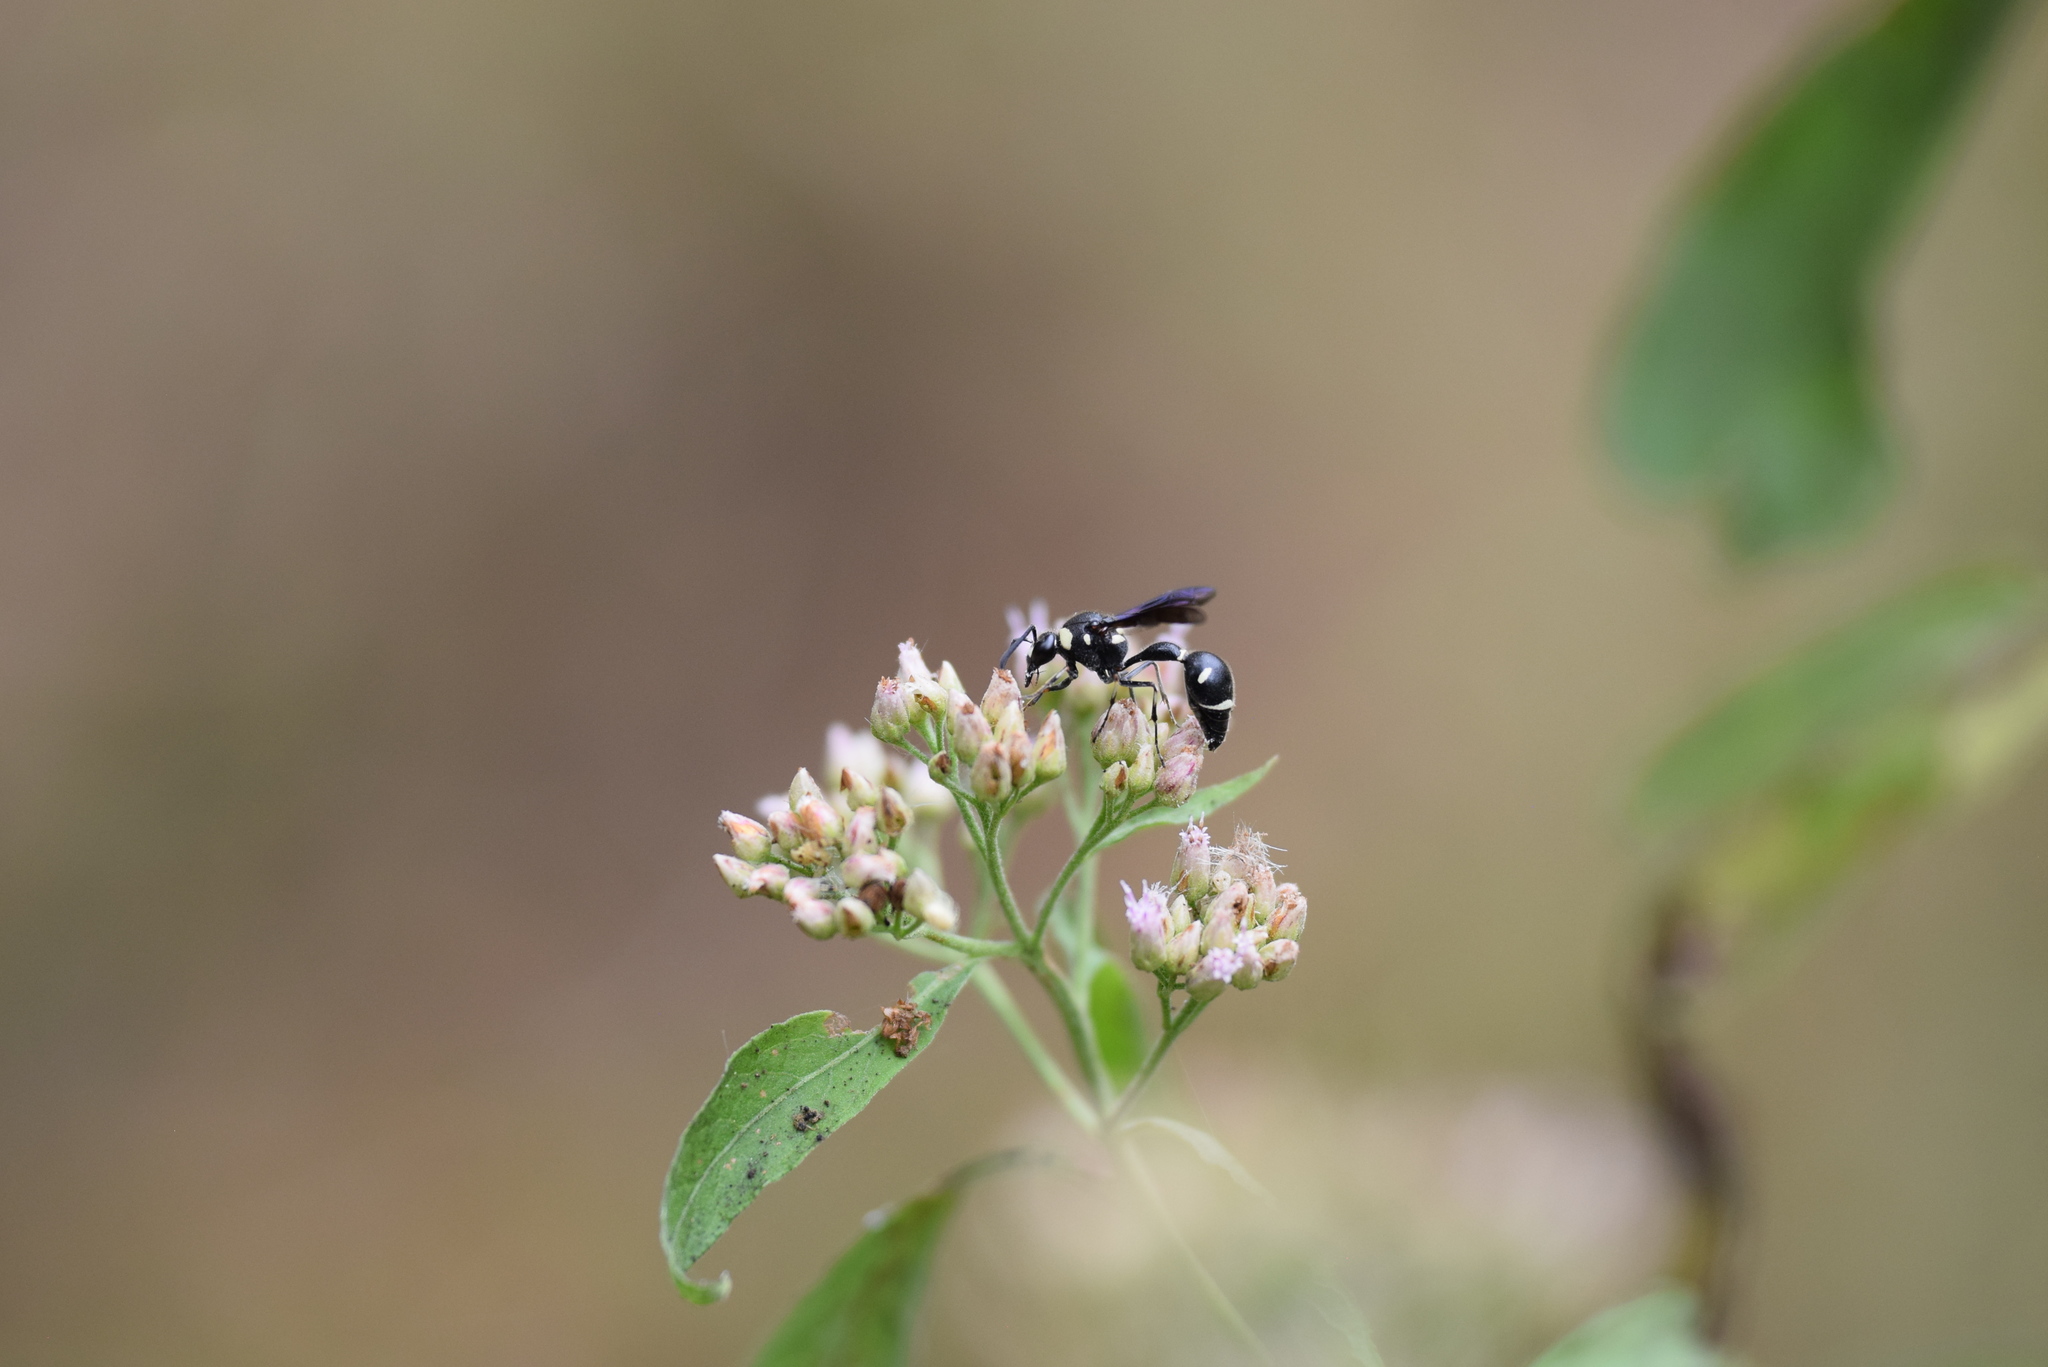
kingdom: Animalia
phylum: Arthropoda
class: Insecta
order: Hymenoptera
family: Vespidae
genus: Eumenes
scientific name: Eumenes fraternus
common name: Fraternal potter wasp
